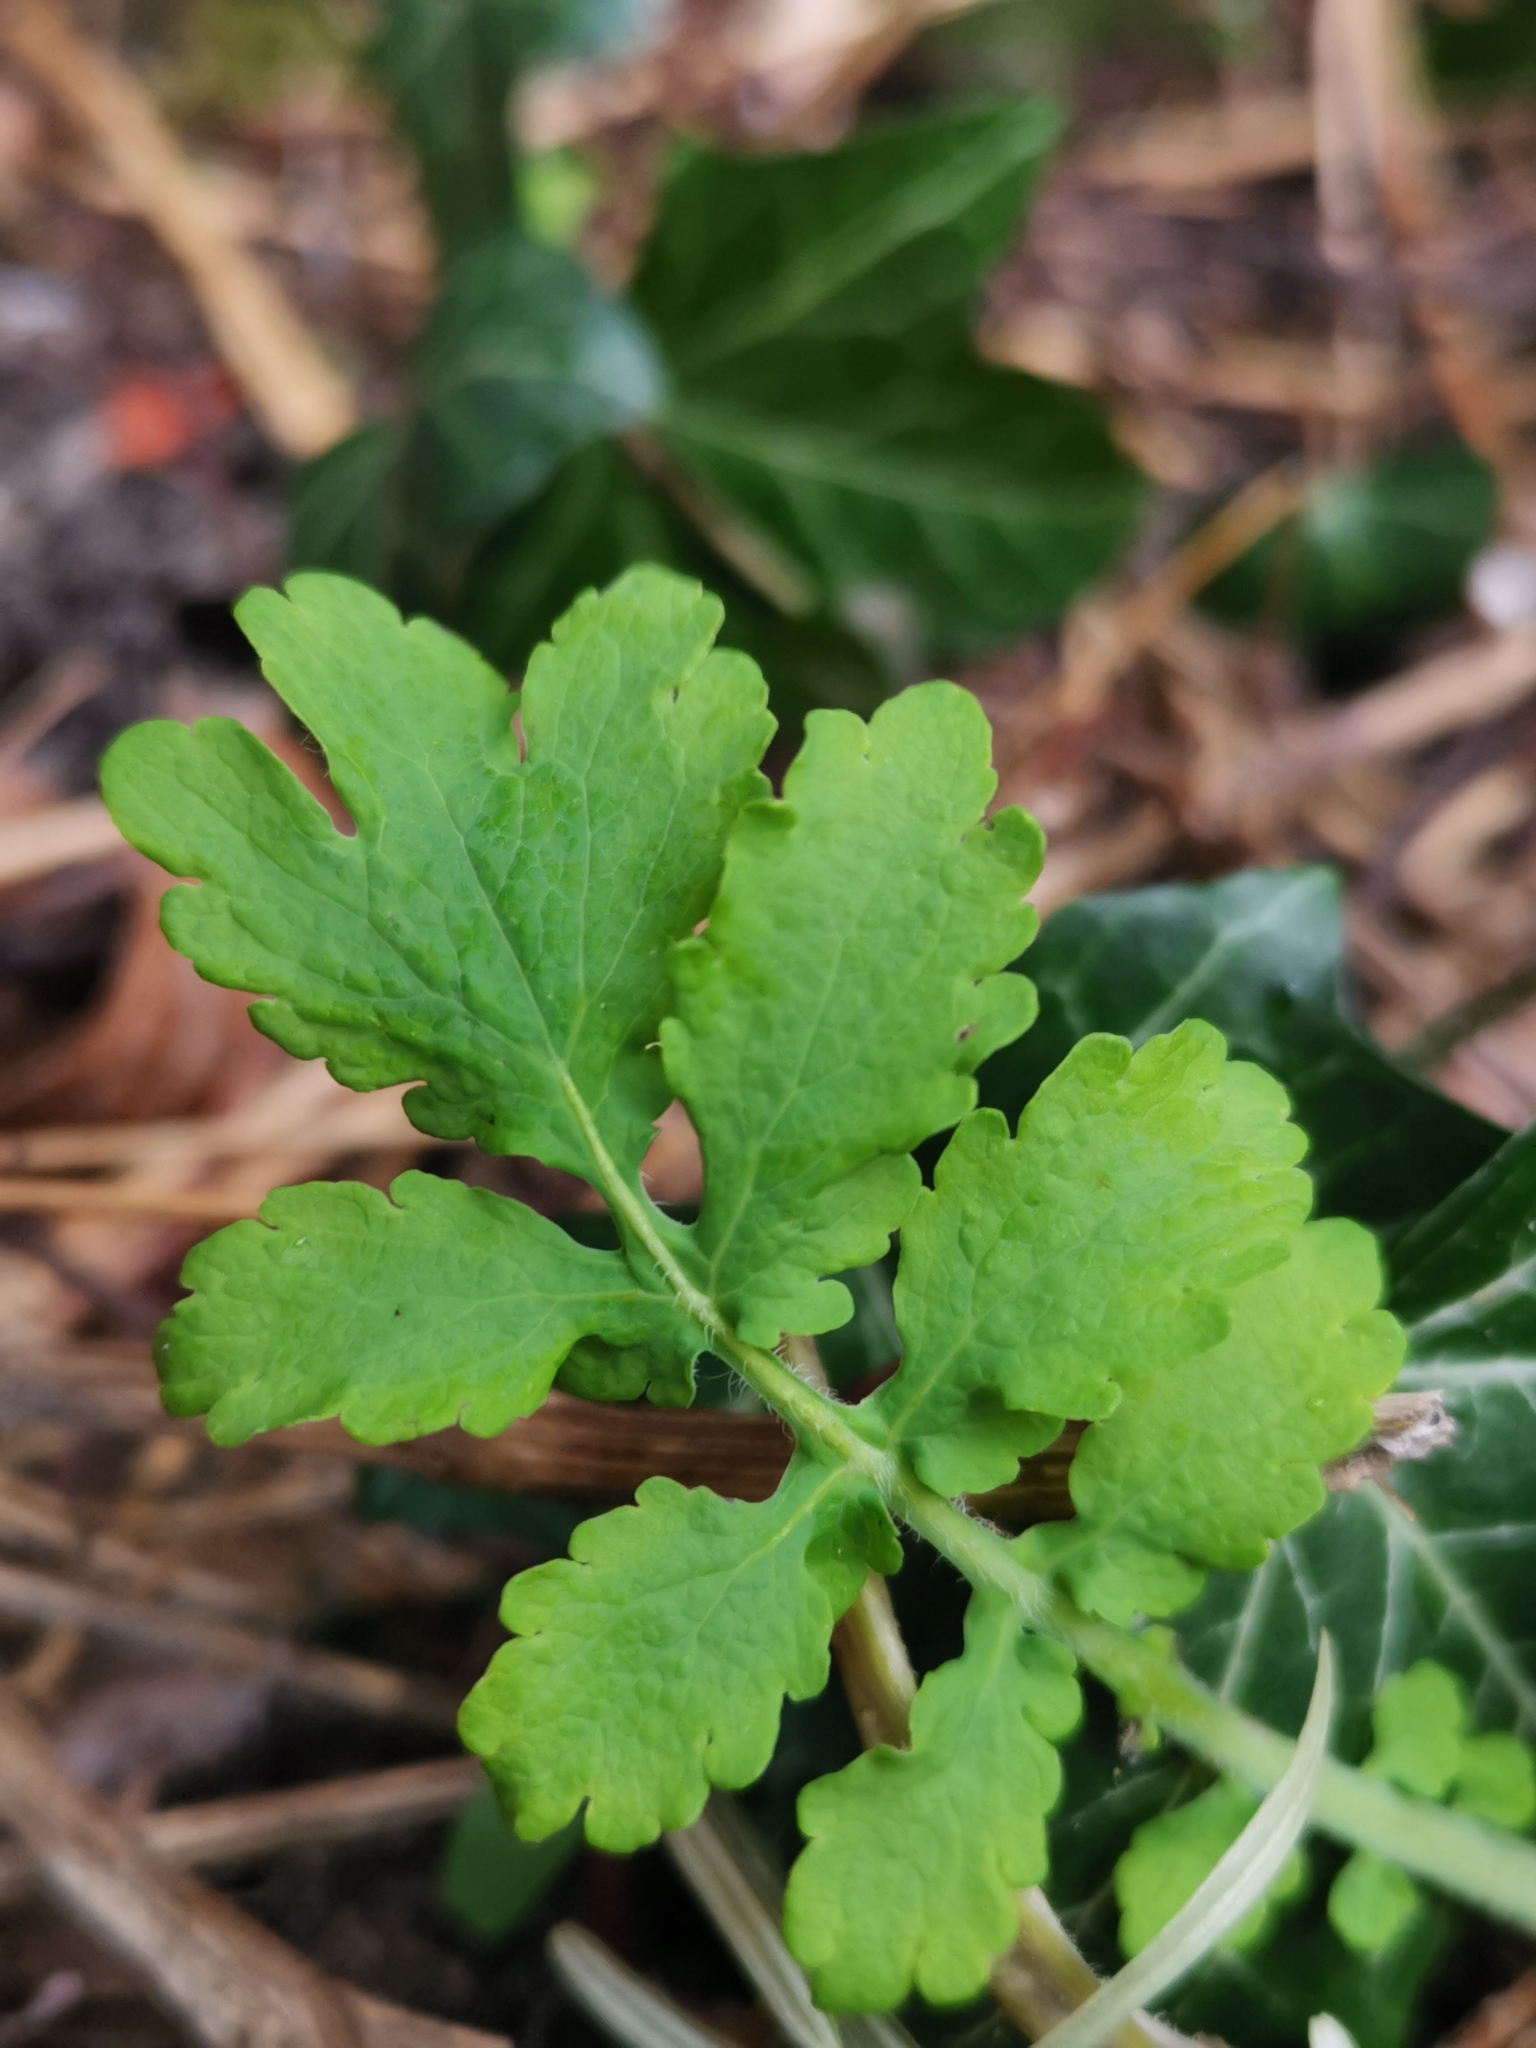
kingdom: Plantae
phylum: Tracheophyta
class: Magnoliopsida
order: Ranunculales
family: Papaveraceae
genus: Chelidonium
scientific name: Chelidonium majus
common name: Greater celandine
